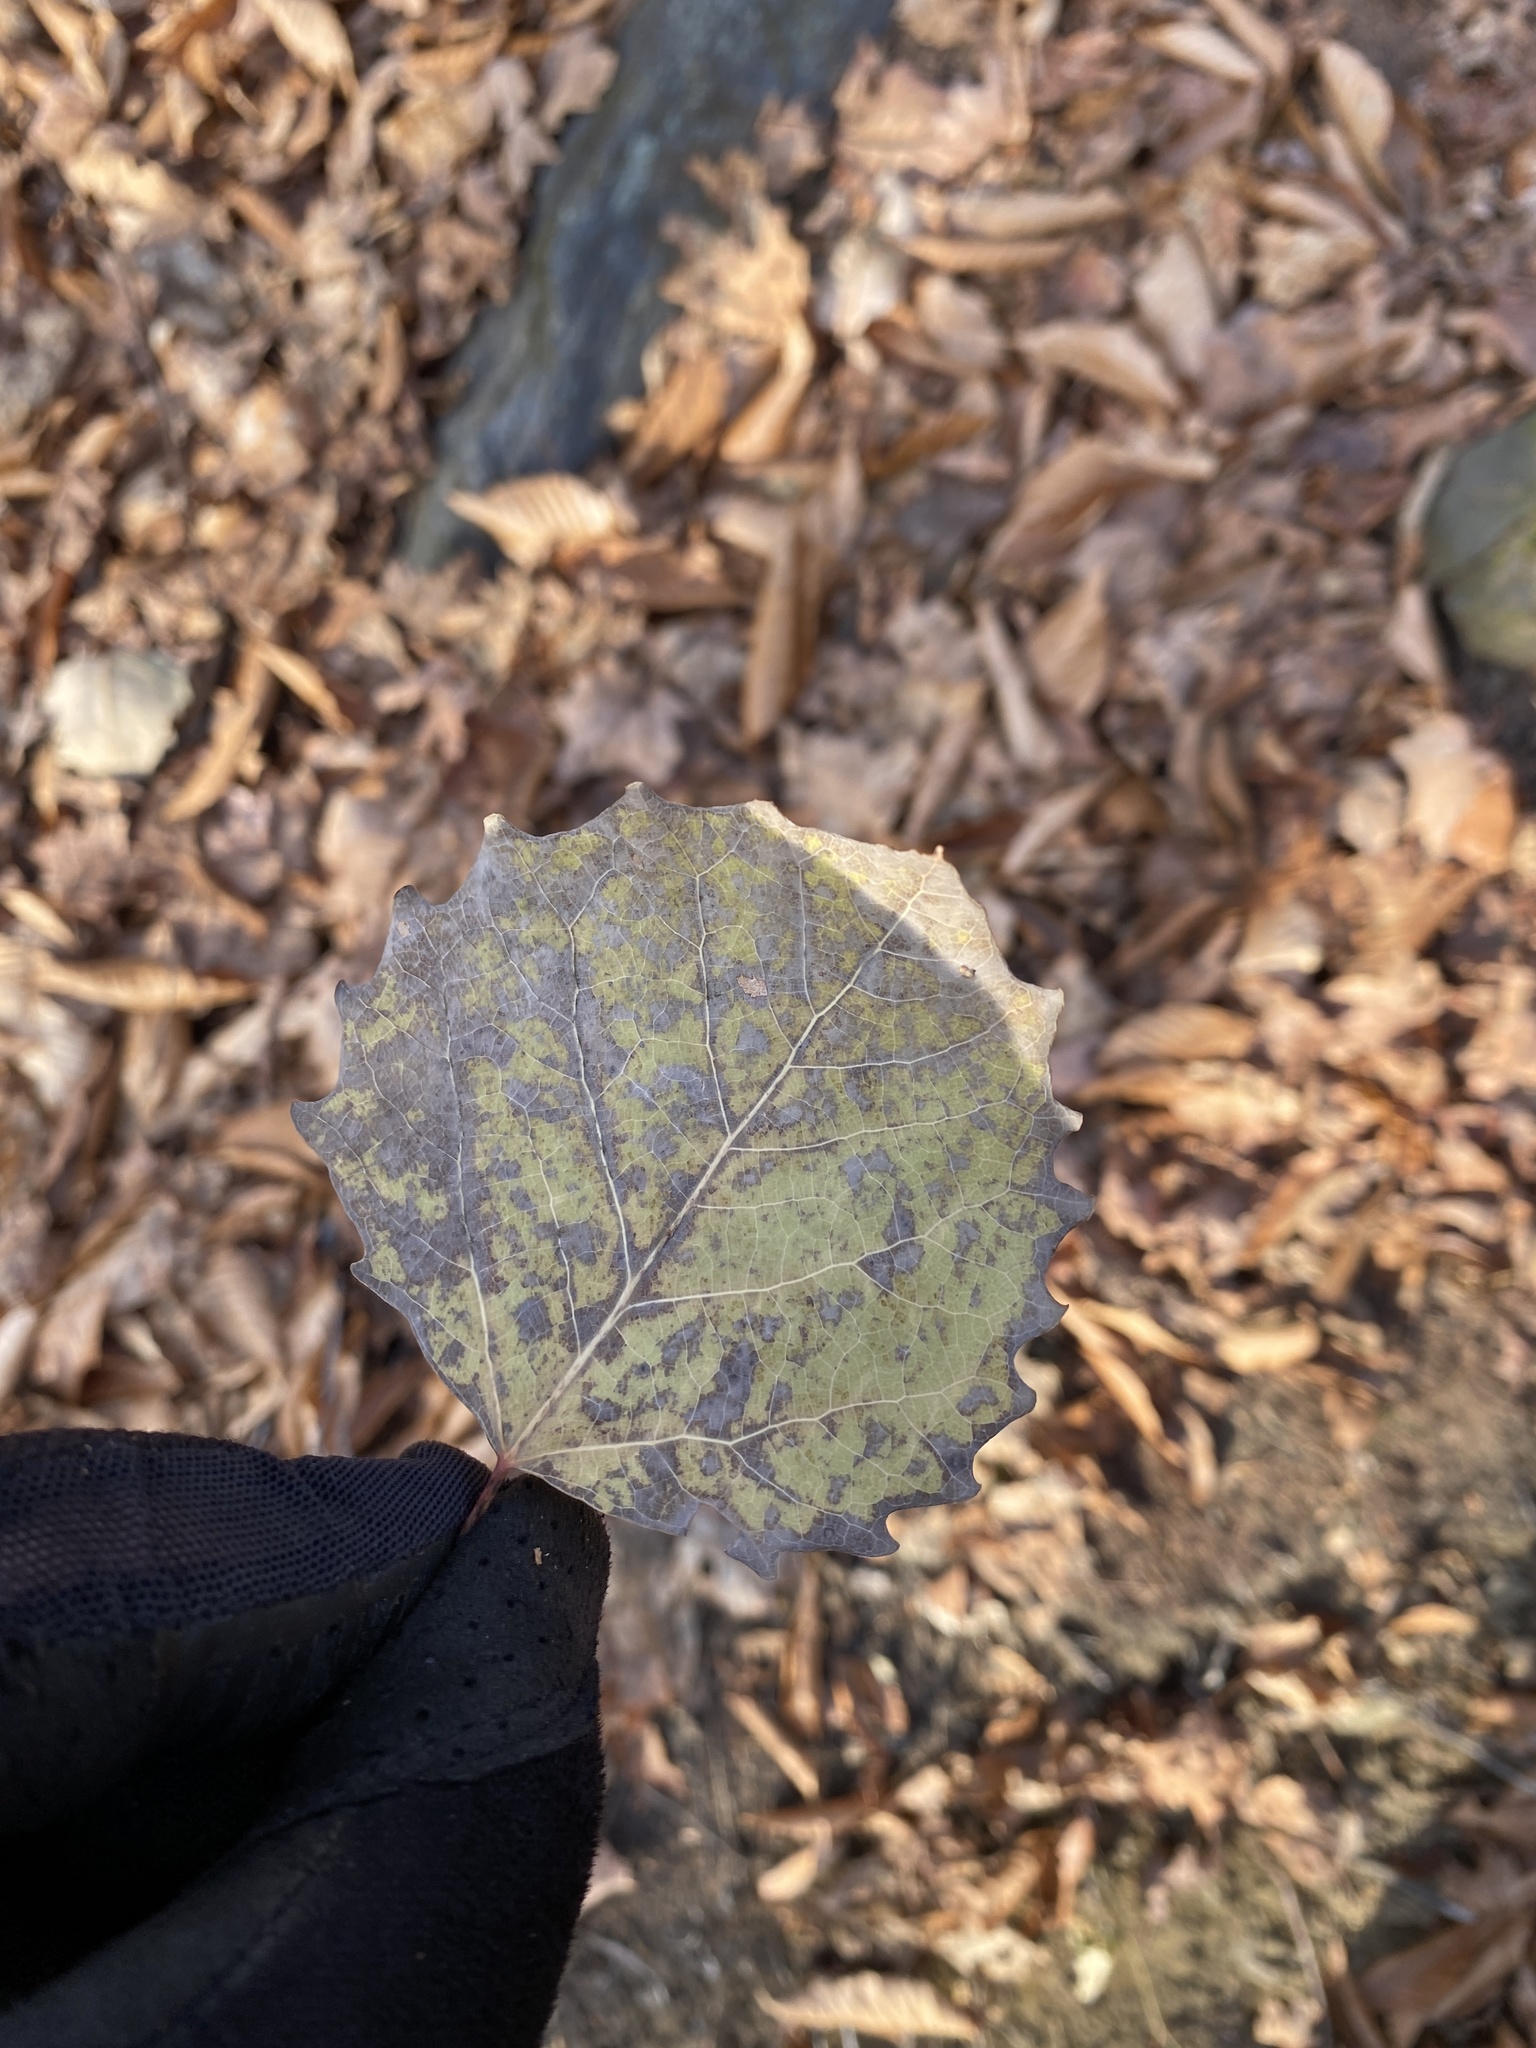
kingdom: Plantae
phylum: Tracheophyta
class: Magnoliopsida
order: Malpighiales
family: Salicaceae
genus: Populus
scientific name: Populus grandidentata
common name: Bigtooth aspen
